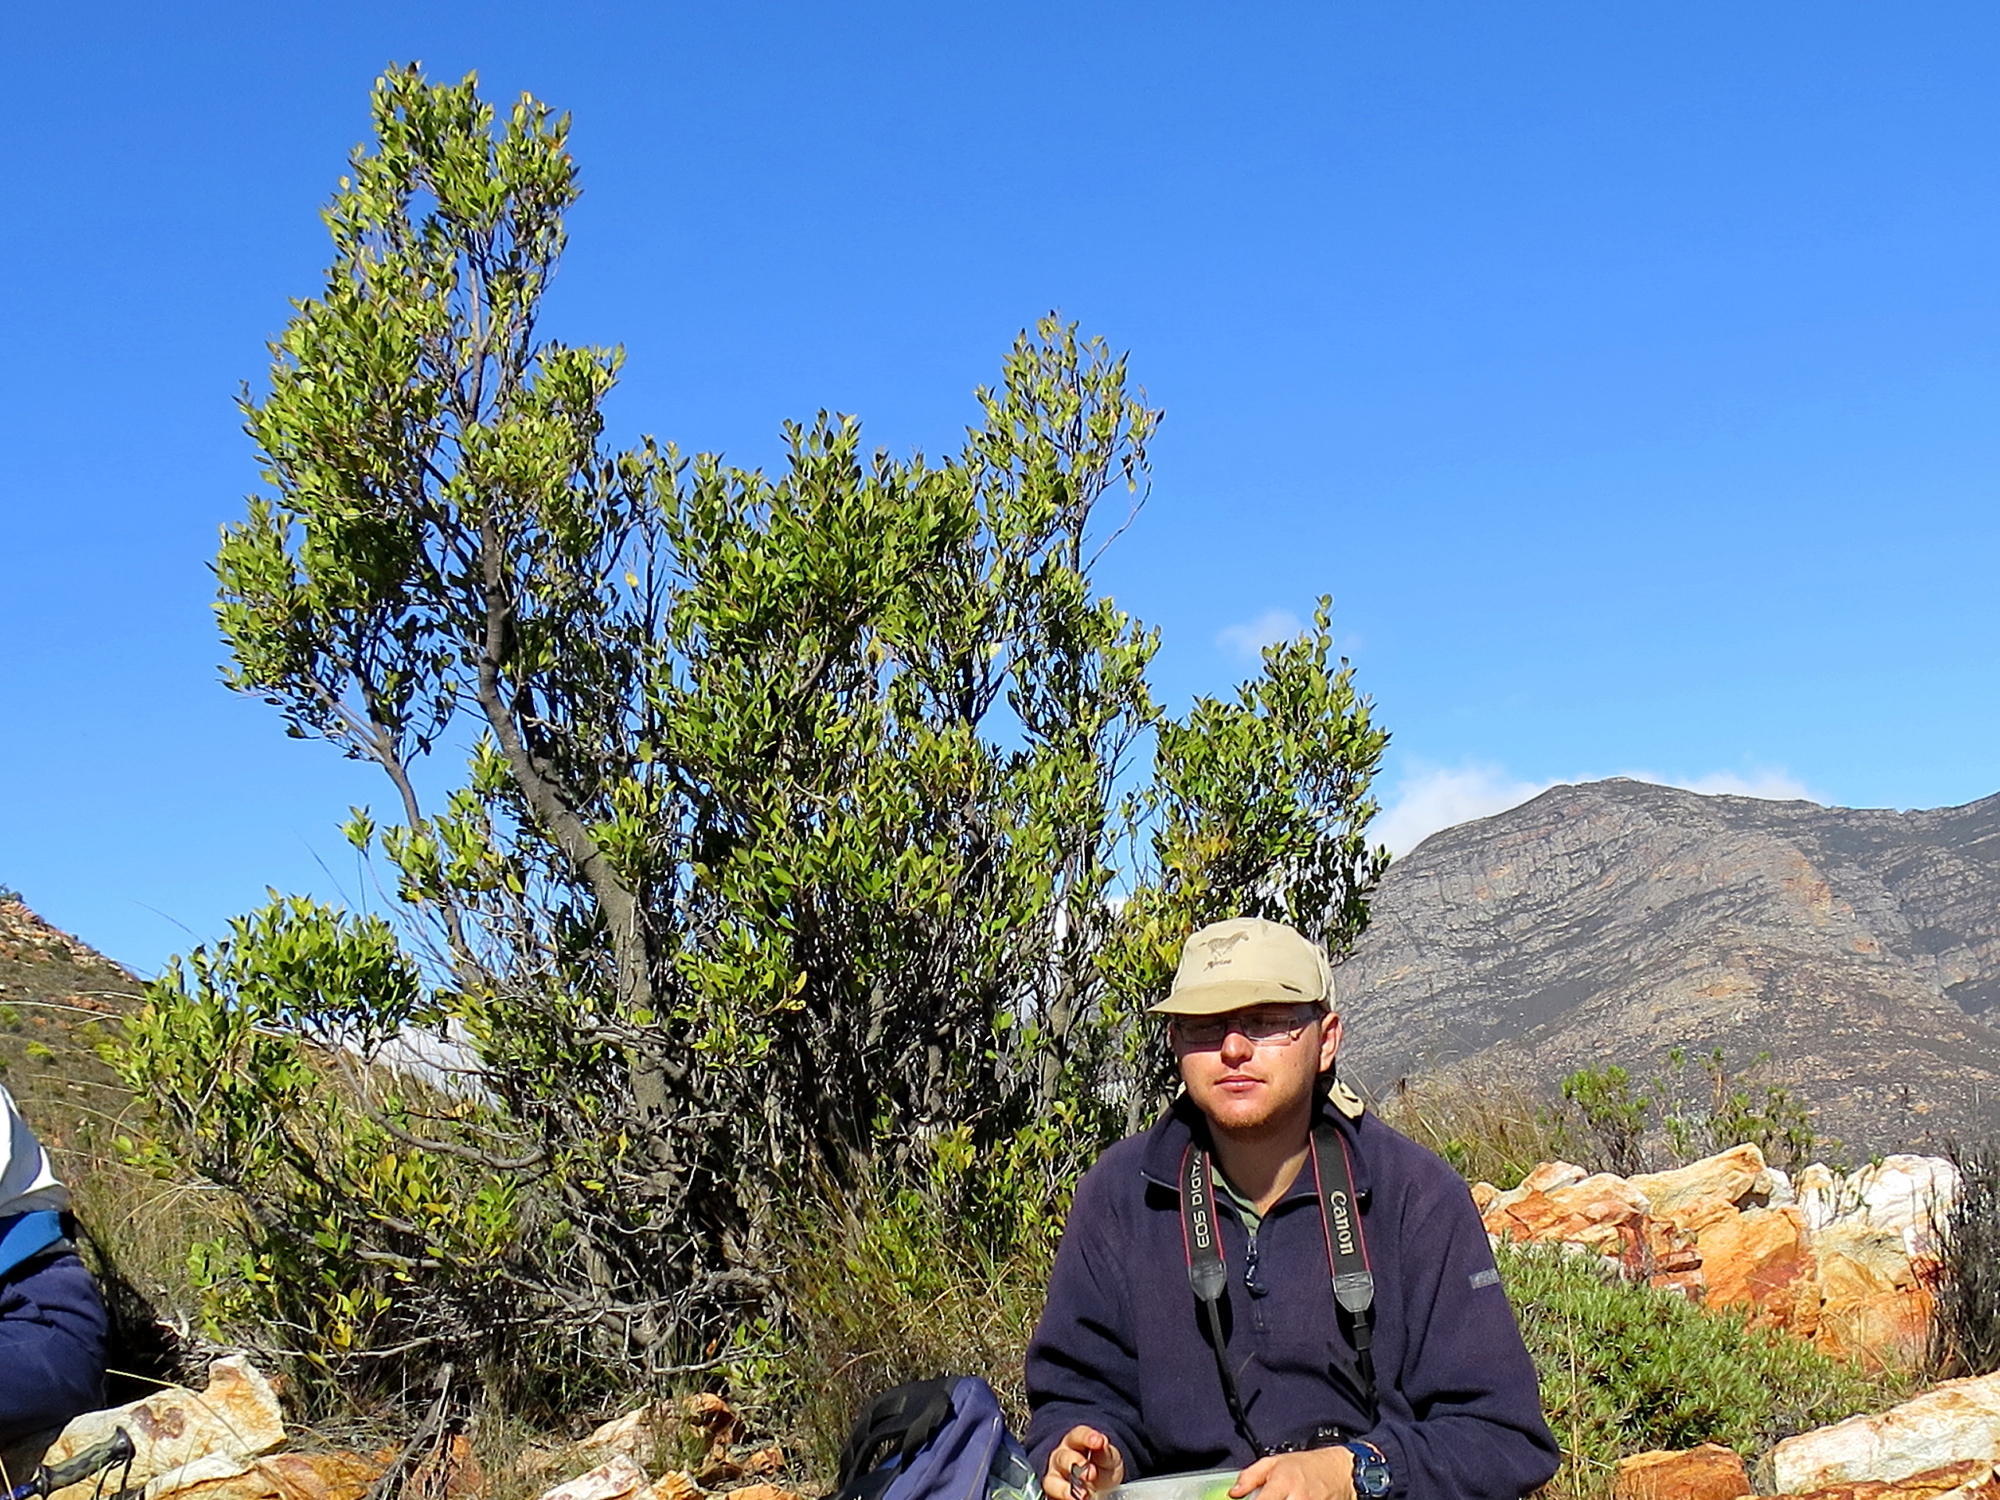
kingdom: Plantae
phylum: Tracheophyta
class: Magnoliopsida
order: Celastrales
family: Celastraceae
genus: Gymnosporia
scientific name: Gymnosporia laurina
